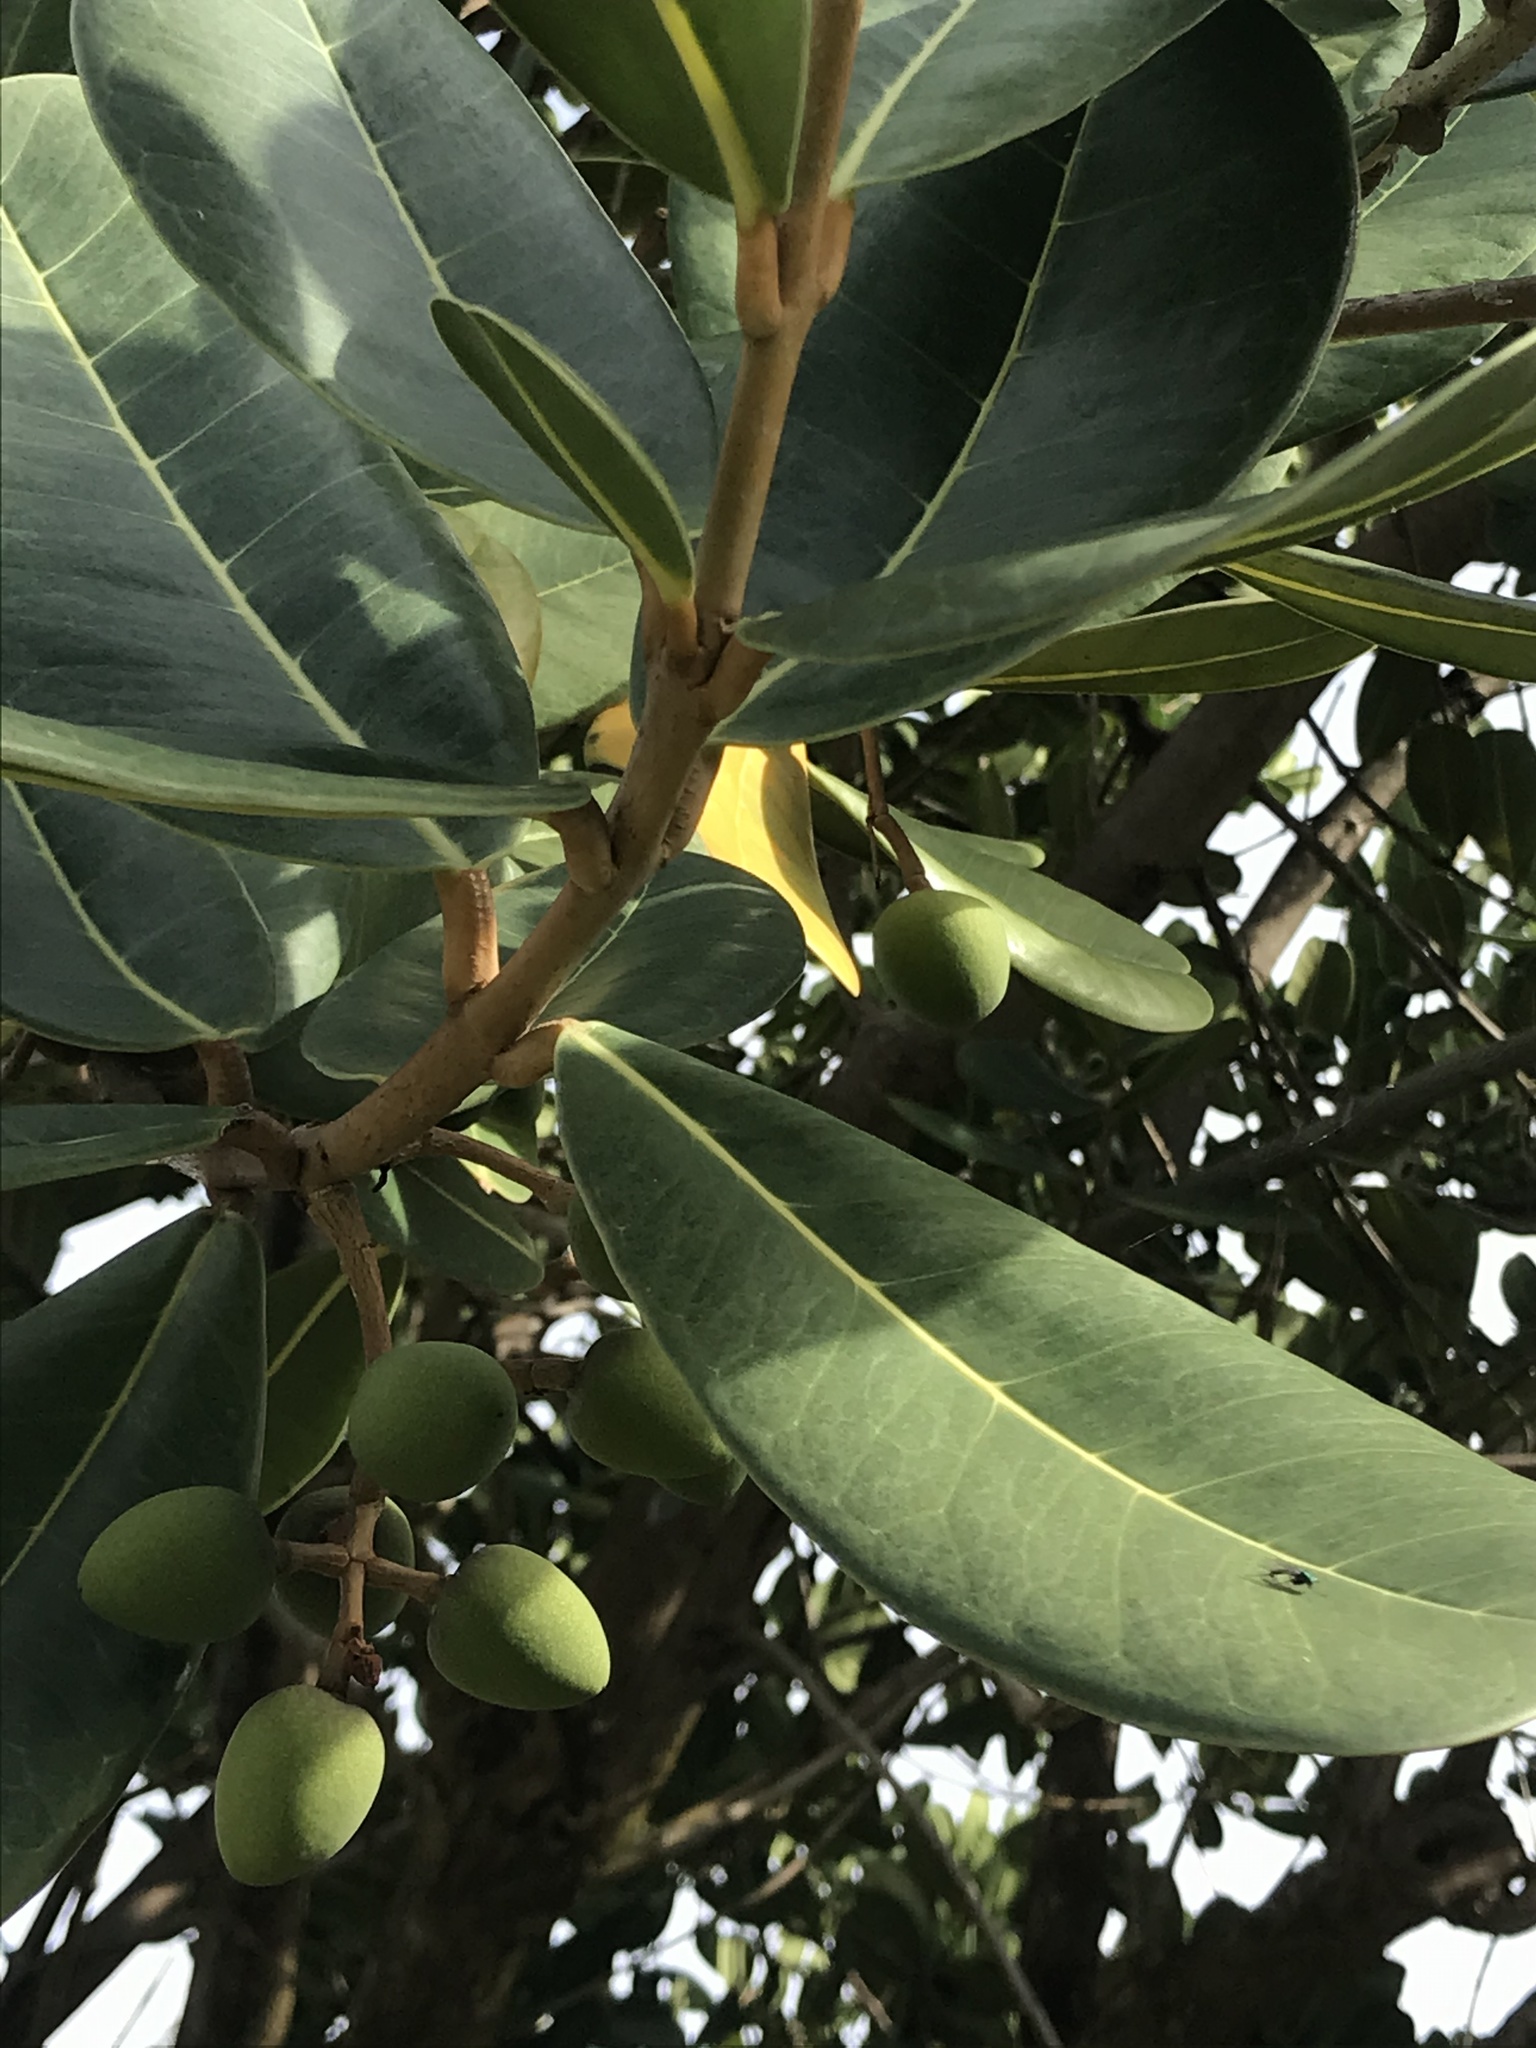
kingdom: Plantae
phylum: Tracheophyta
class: Magnoliopsida
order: Lamiales
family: Oleaceae
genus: Noronhia
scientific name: Noronhia emarginata
